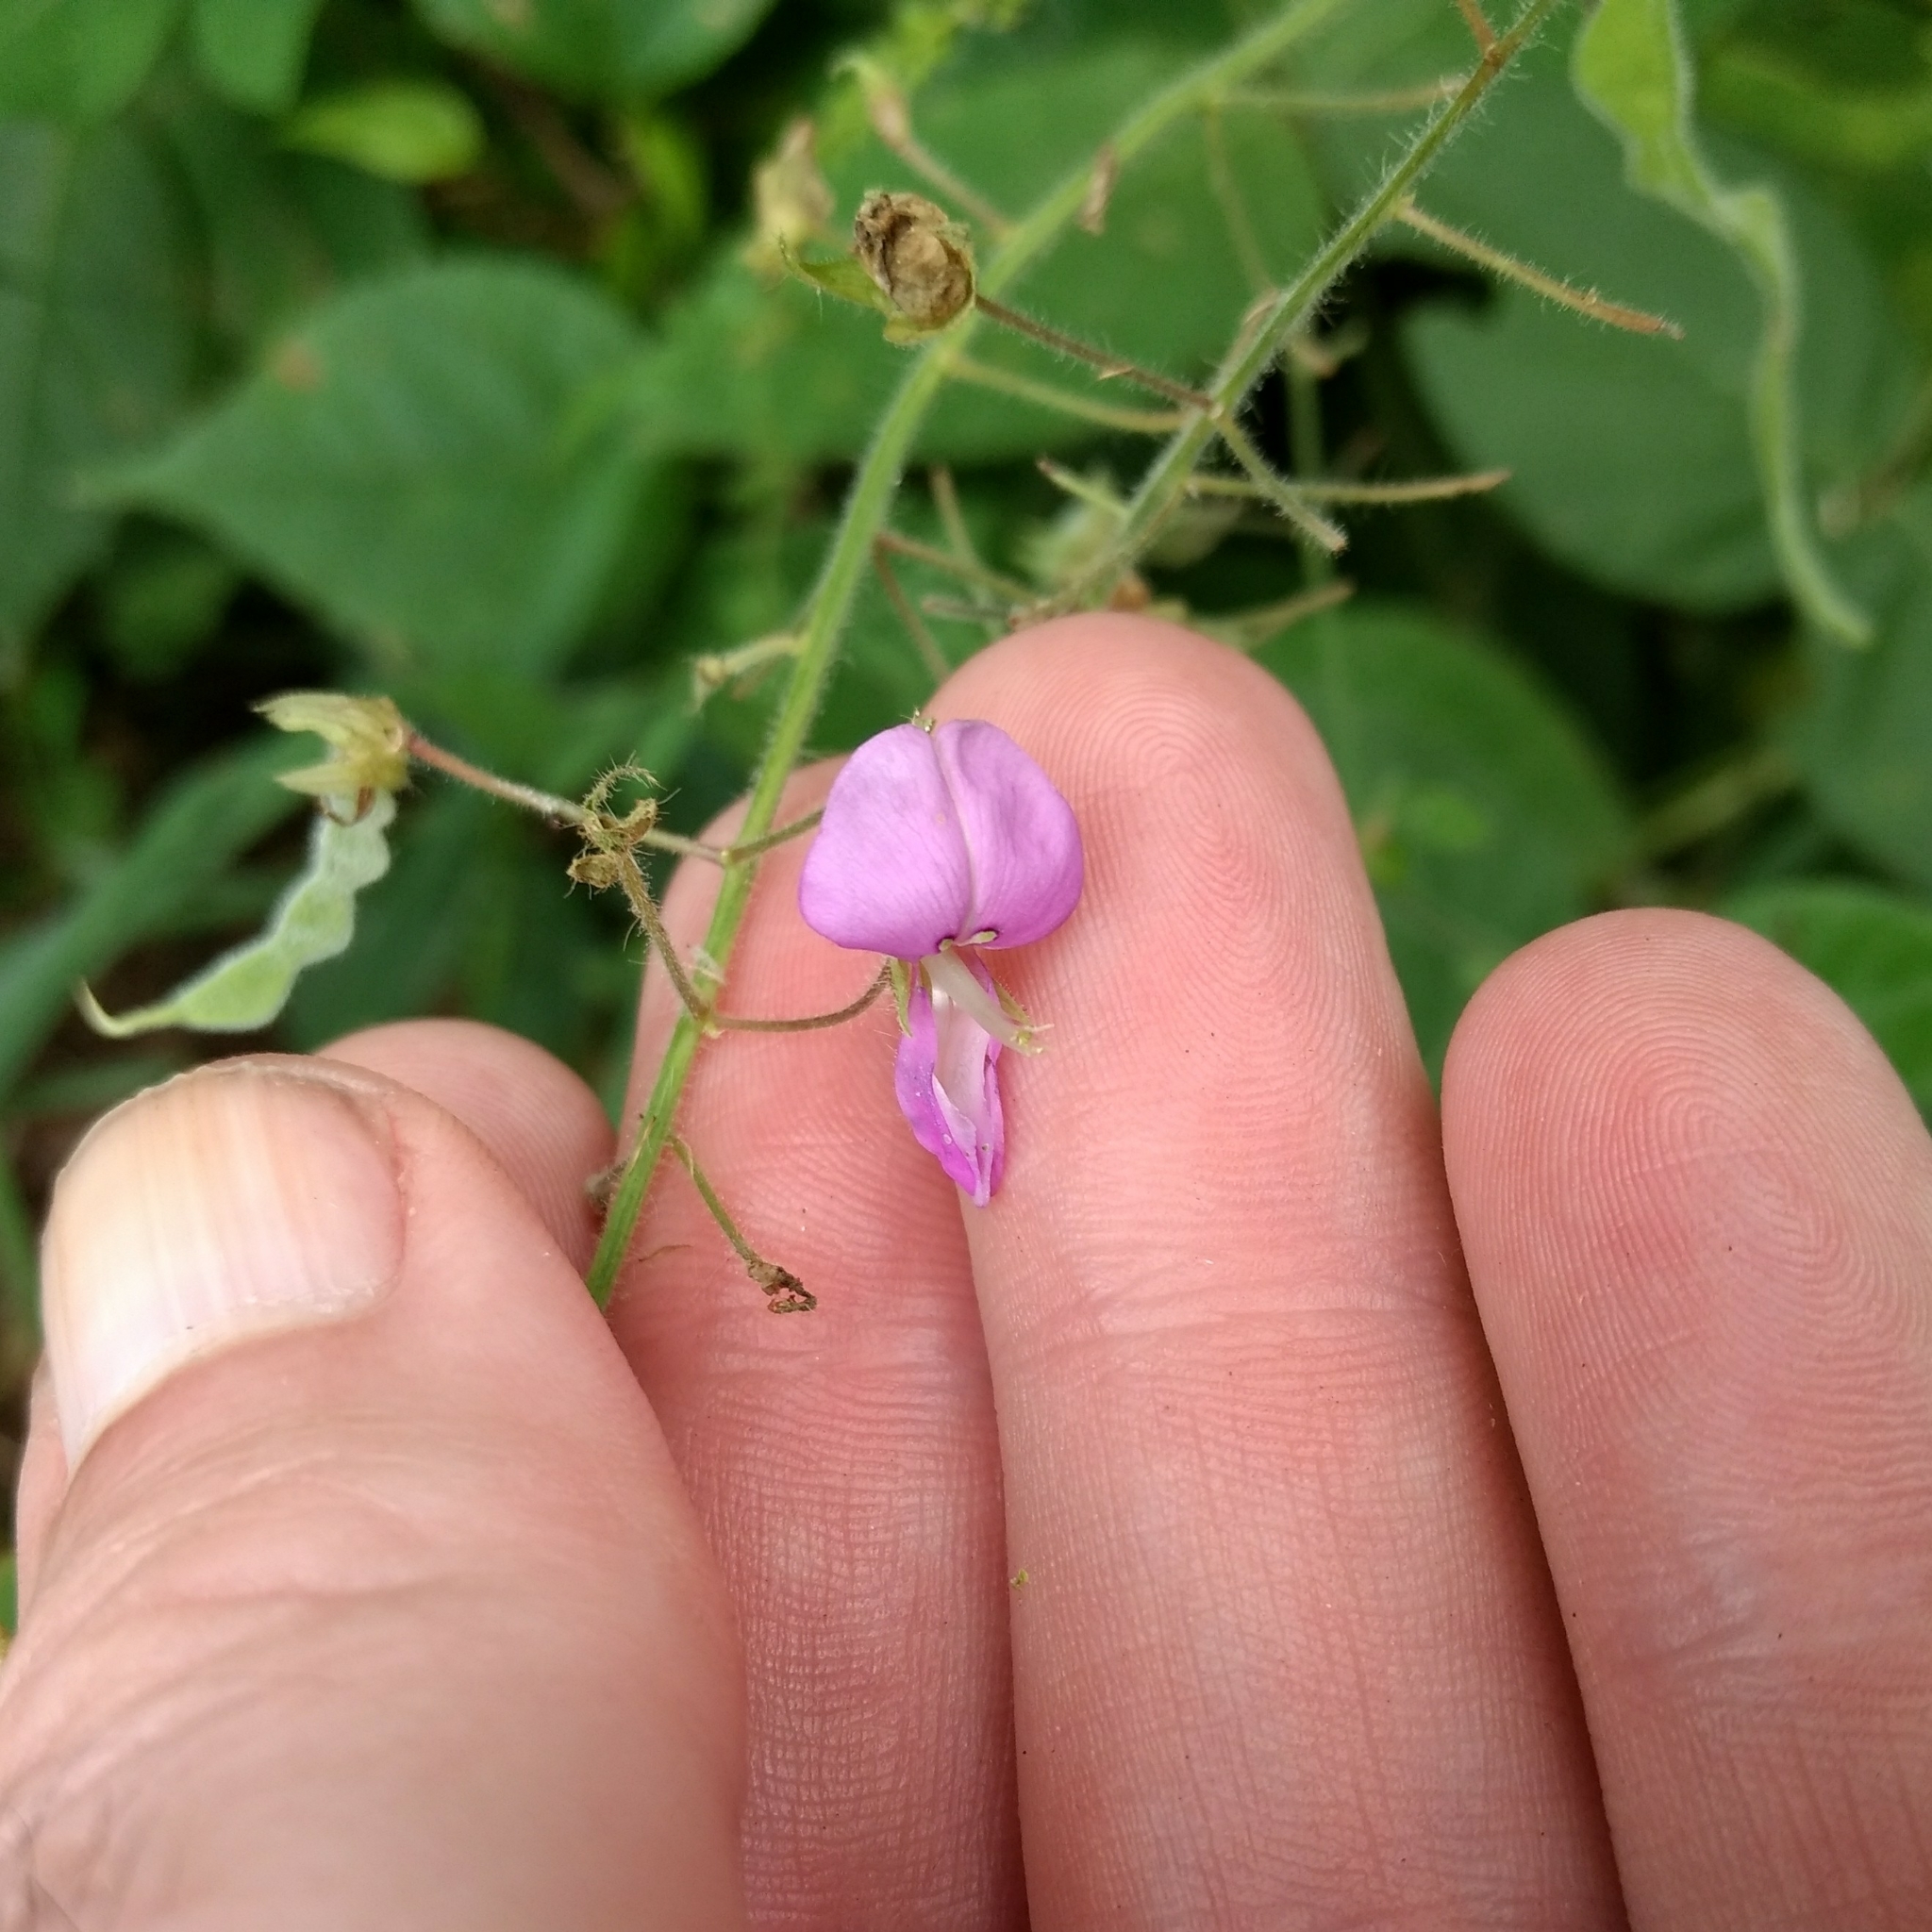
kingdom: Plantae
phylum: Tracheophyta
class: Magnoliopsida
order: Fabales
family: Fabaceae
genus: Desmodium
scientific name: Desmodium canescens
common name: Hoary tick-clover
